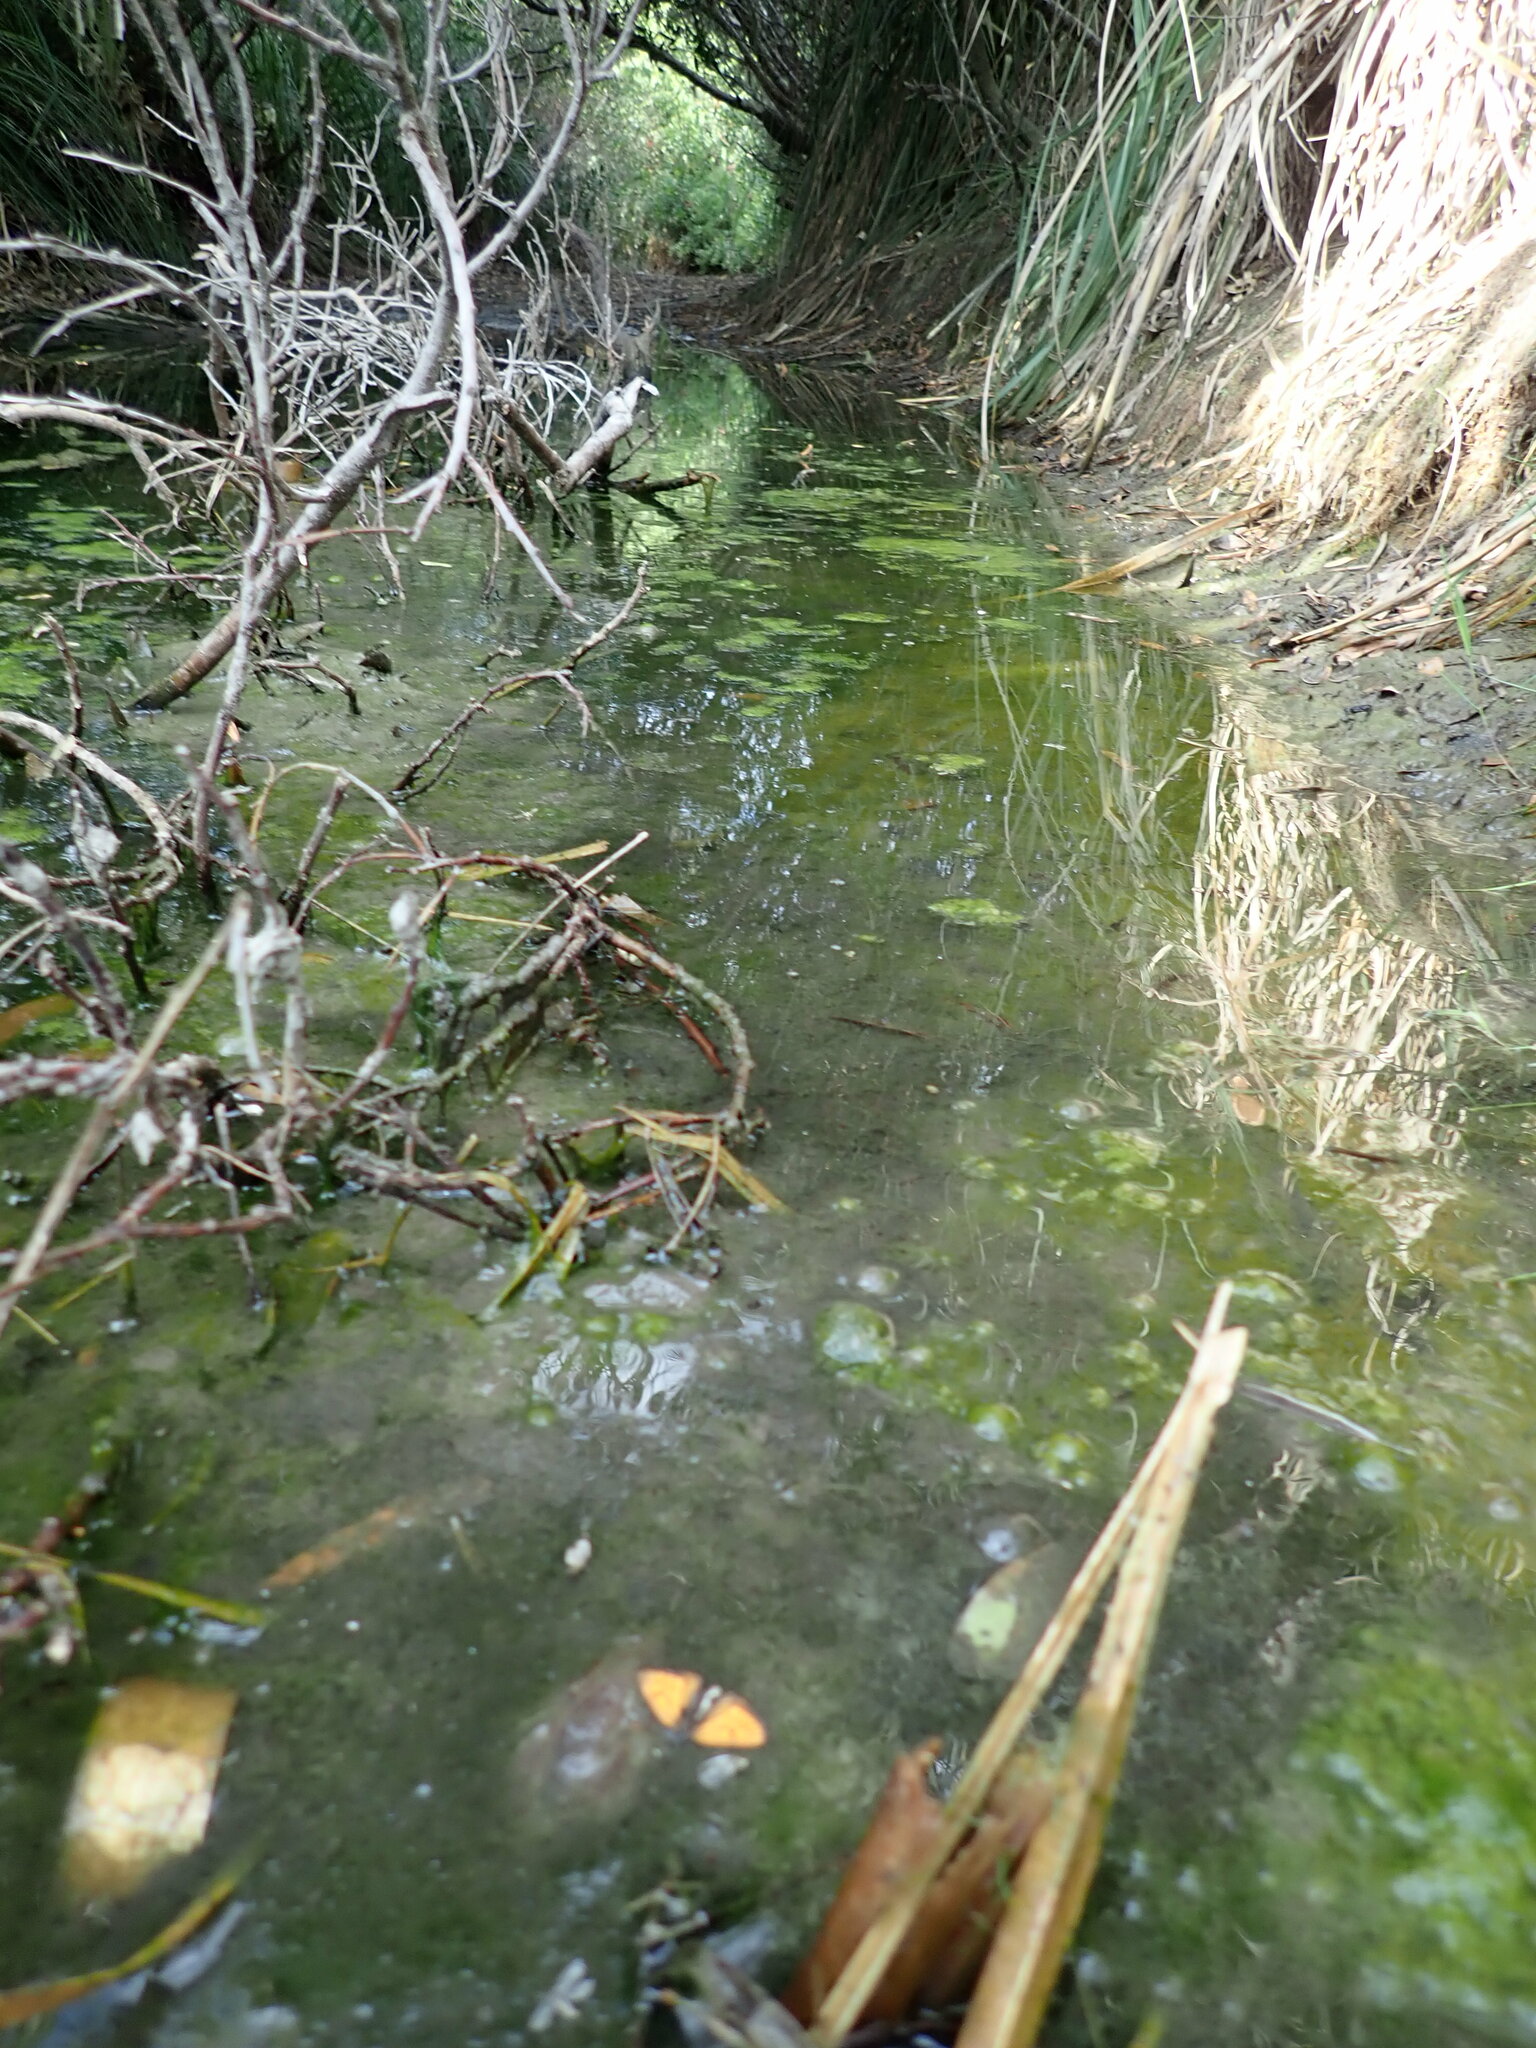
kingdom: Animalia
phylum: Arthropoda
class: Insecta
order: Lepidoptera
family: Lycaenidae
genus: Lycaena
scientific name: Lycaena salustius
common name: North island coastal copper
